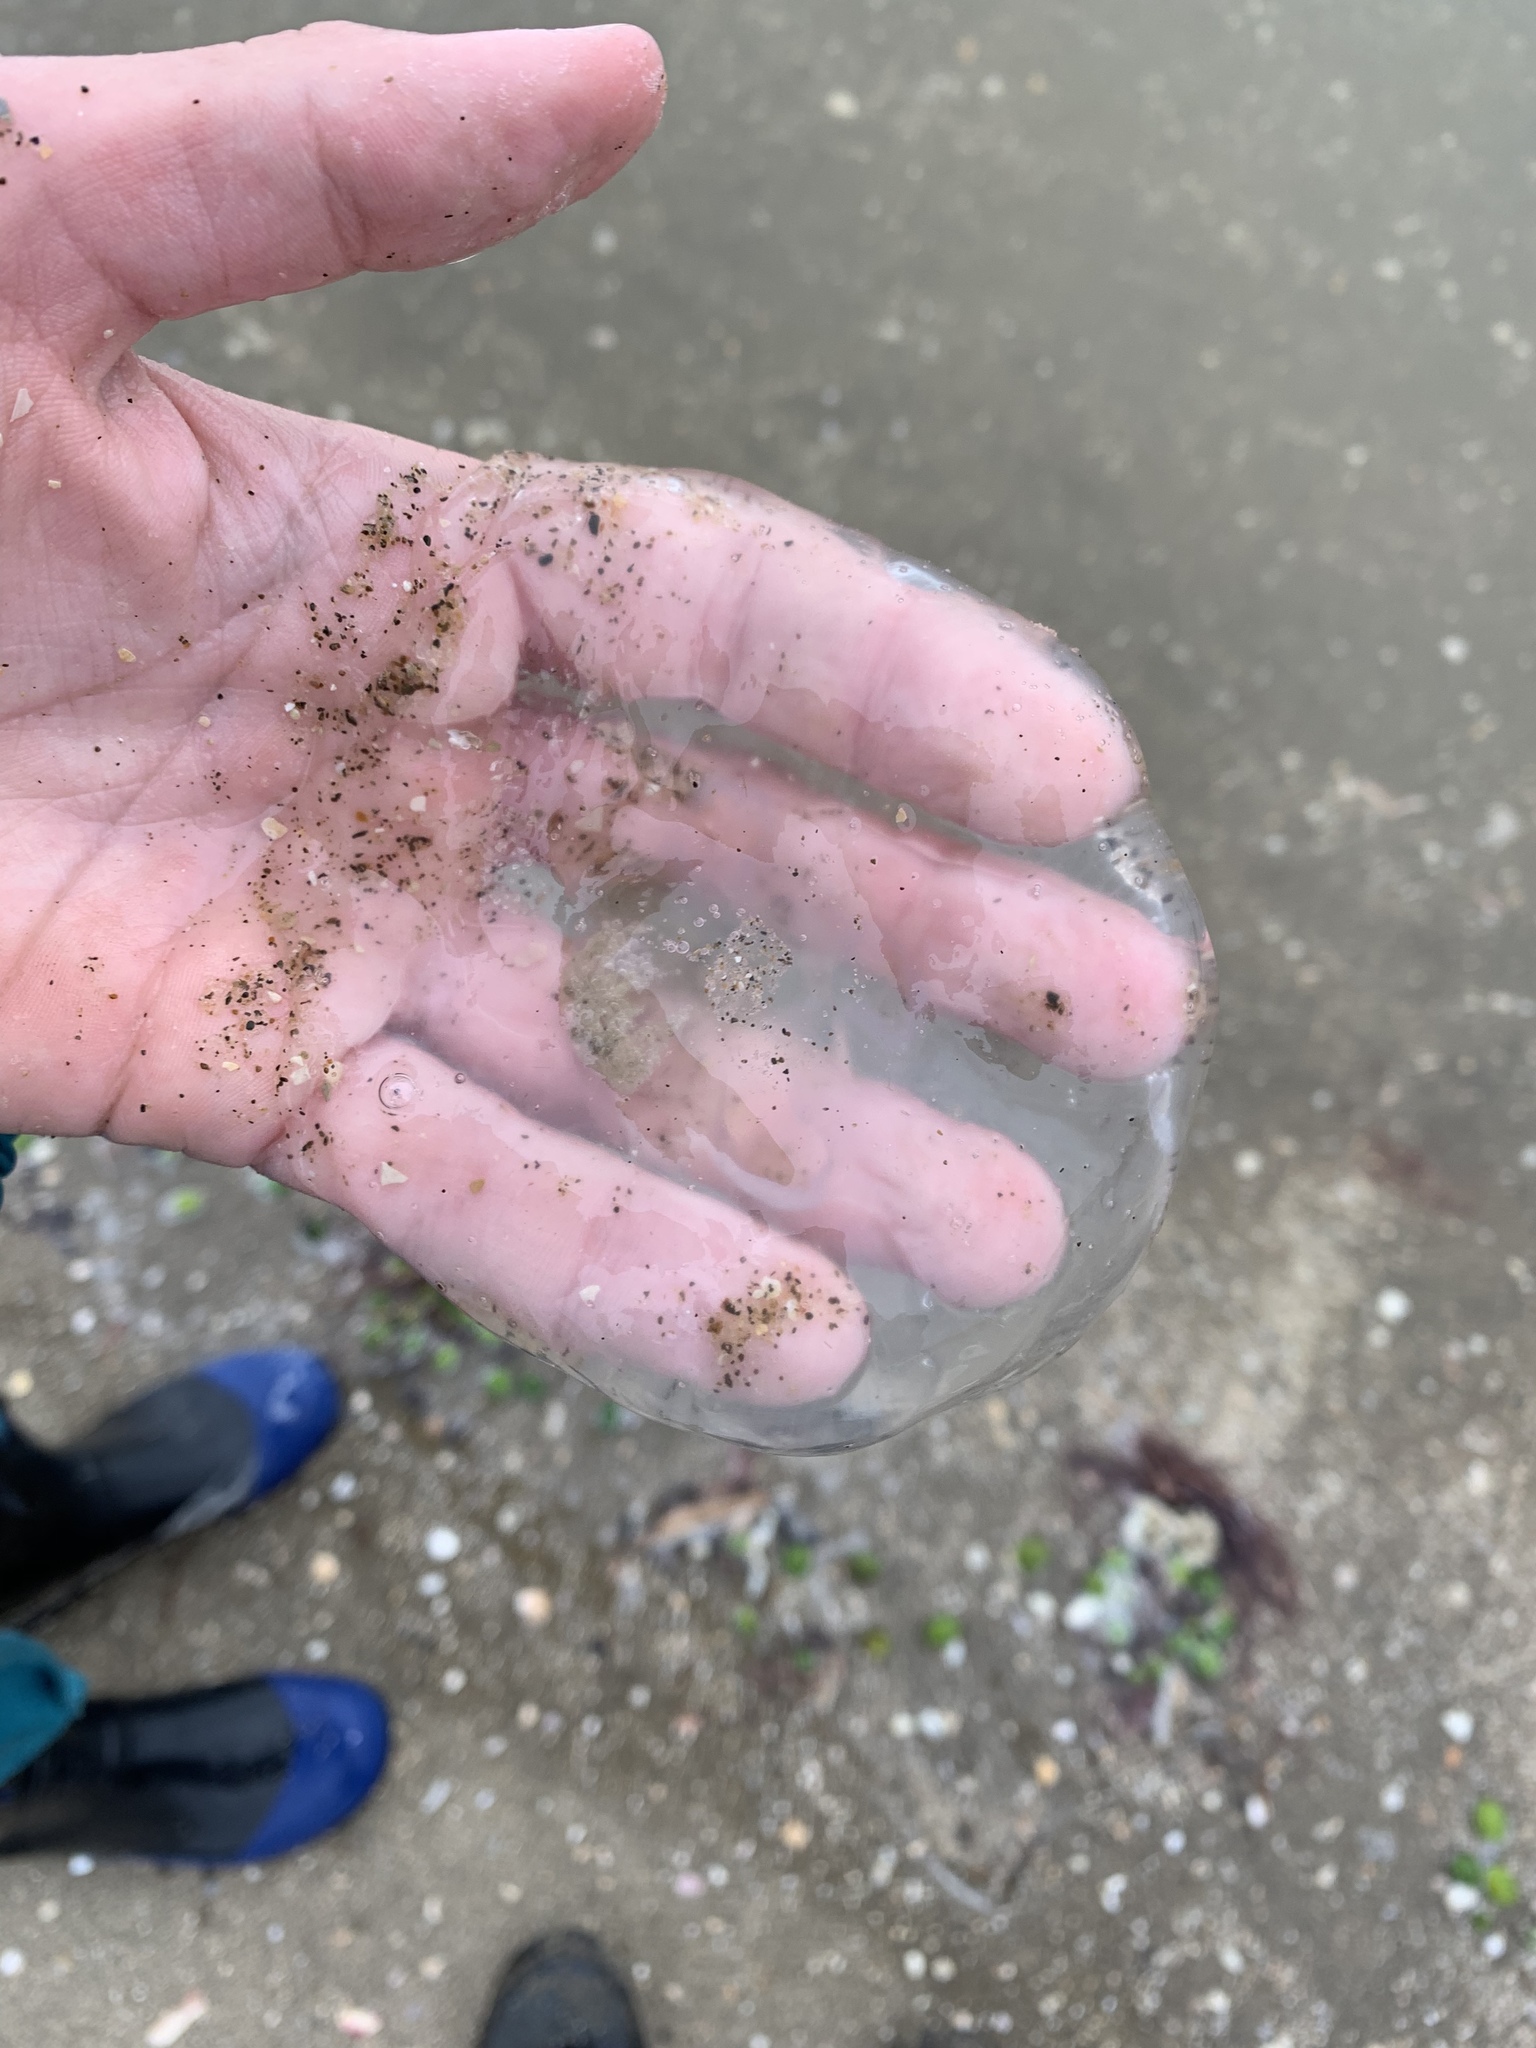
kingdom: Animalia
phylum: Cnidaria
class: Scyphozoa
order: Semaeostomeae
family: Ulmaridae
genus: Aurelia
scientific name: Aurelia
